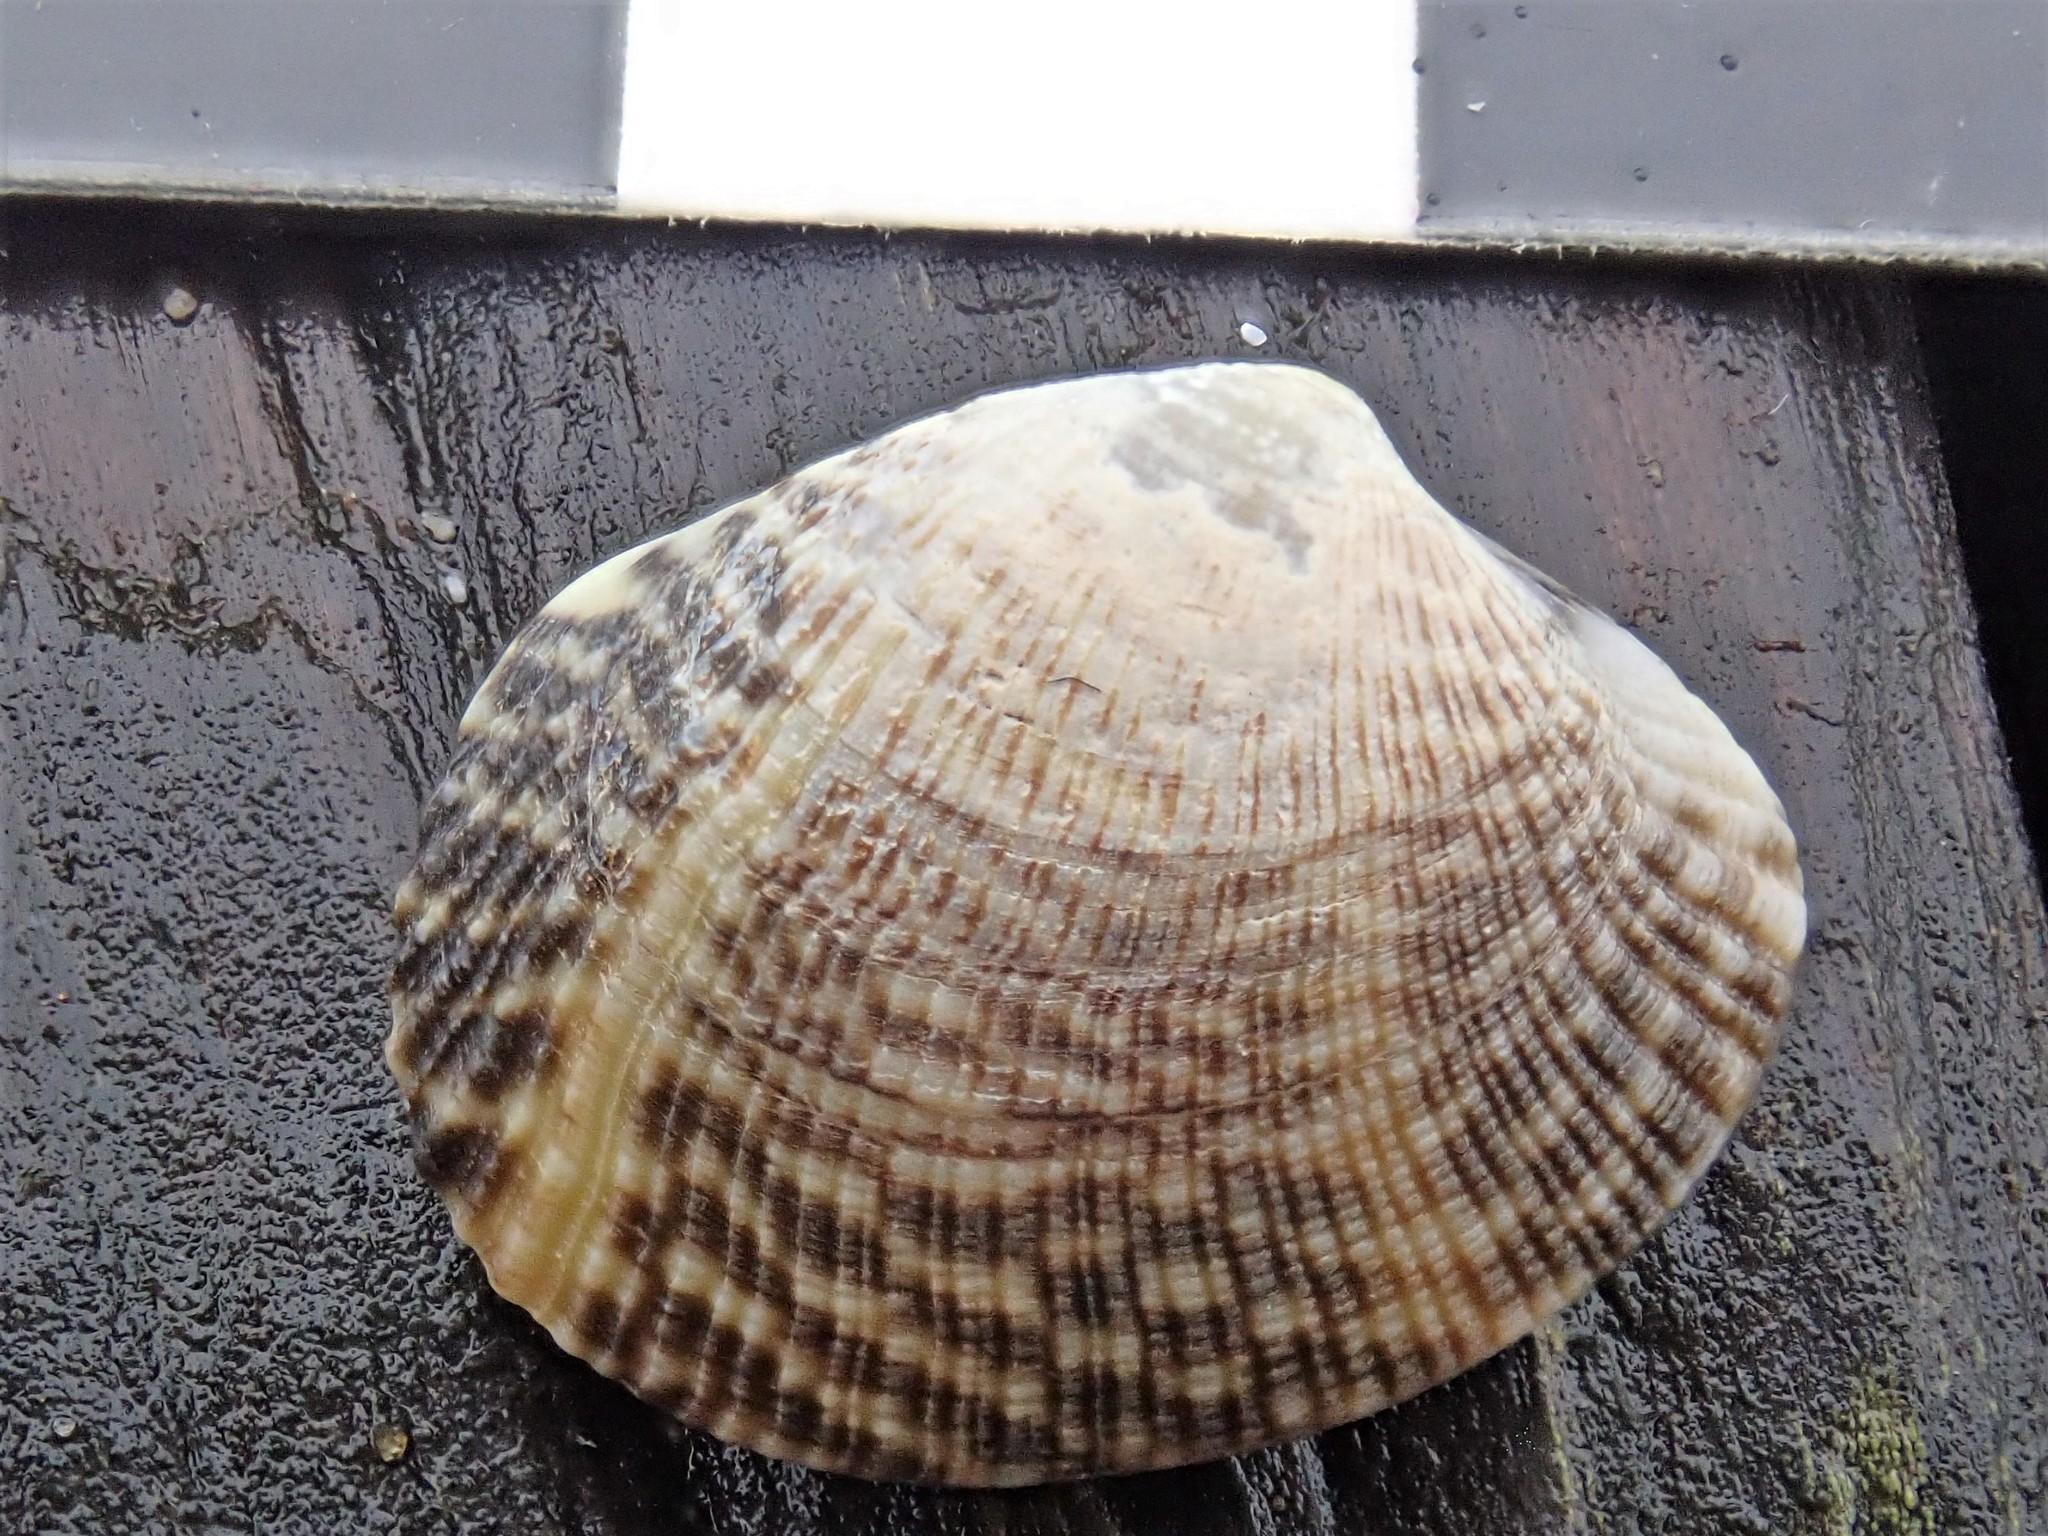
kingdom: Animalia
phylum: Mollusca
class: Bivalvia
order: Venerida
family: Veneridae
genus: Ruditapes
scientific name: Ruditapes philippinarum
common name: Manila clam
